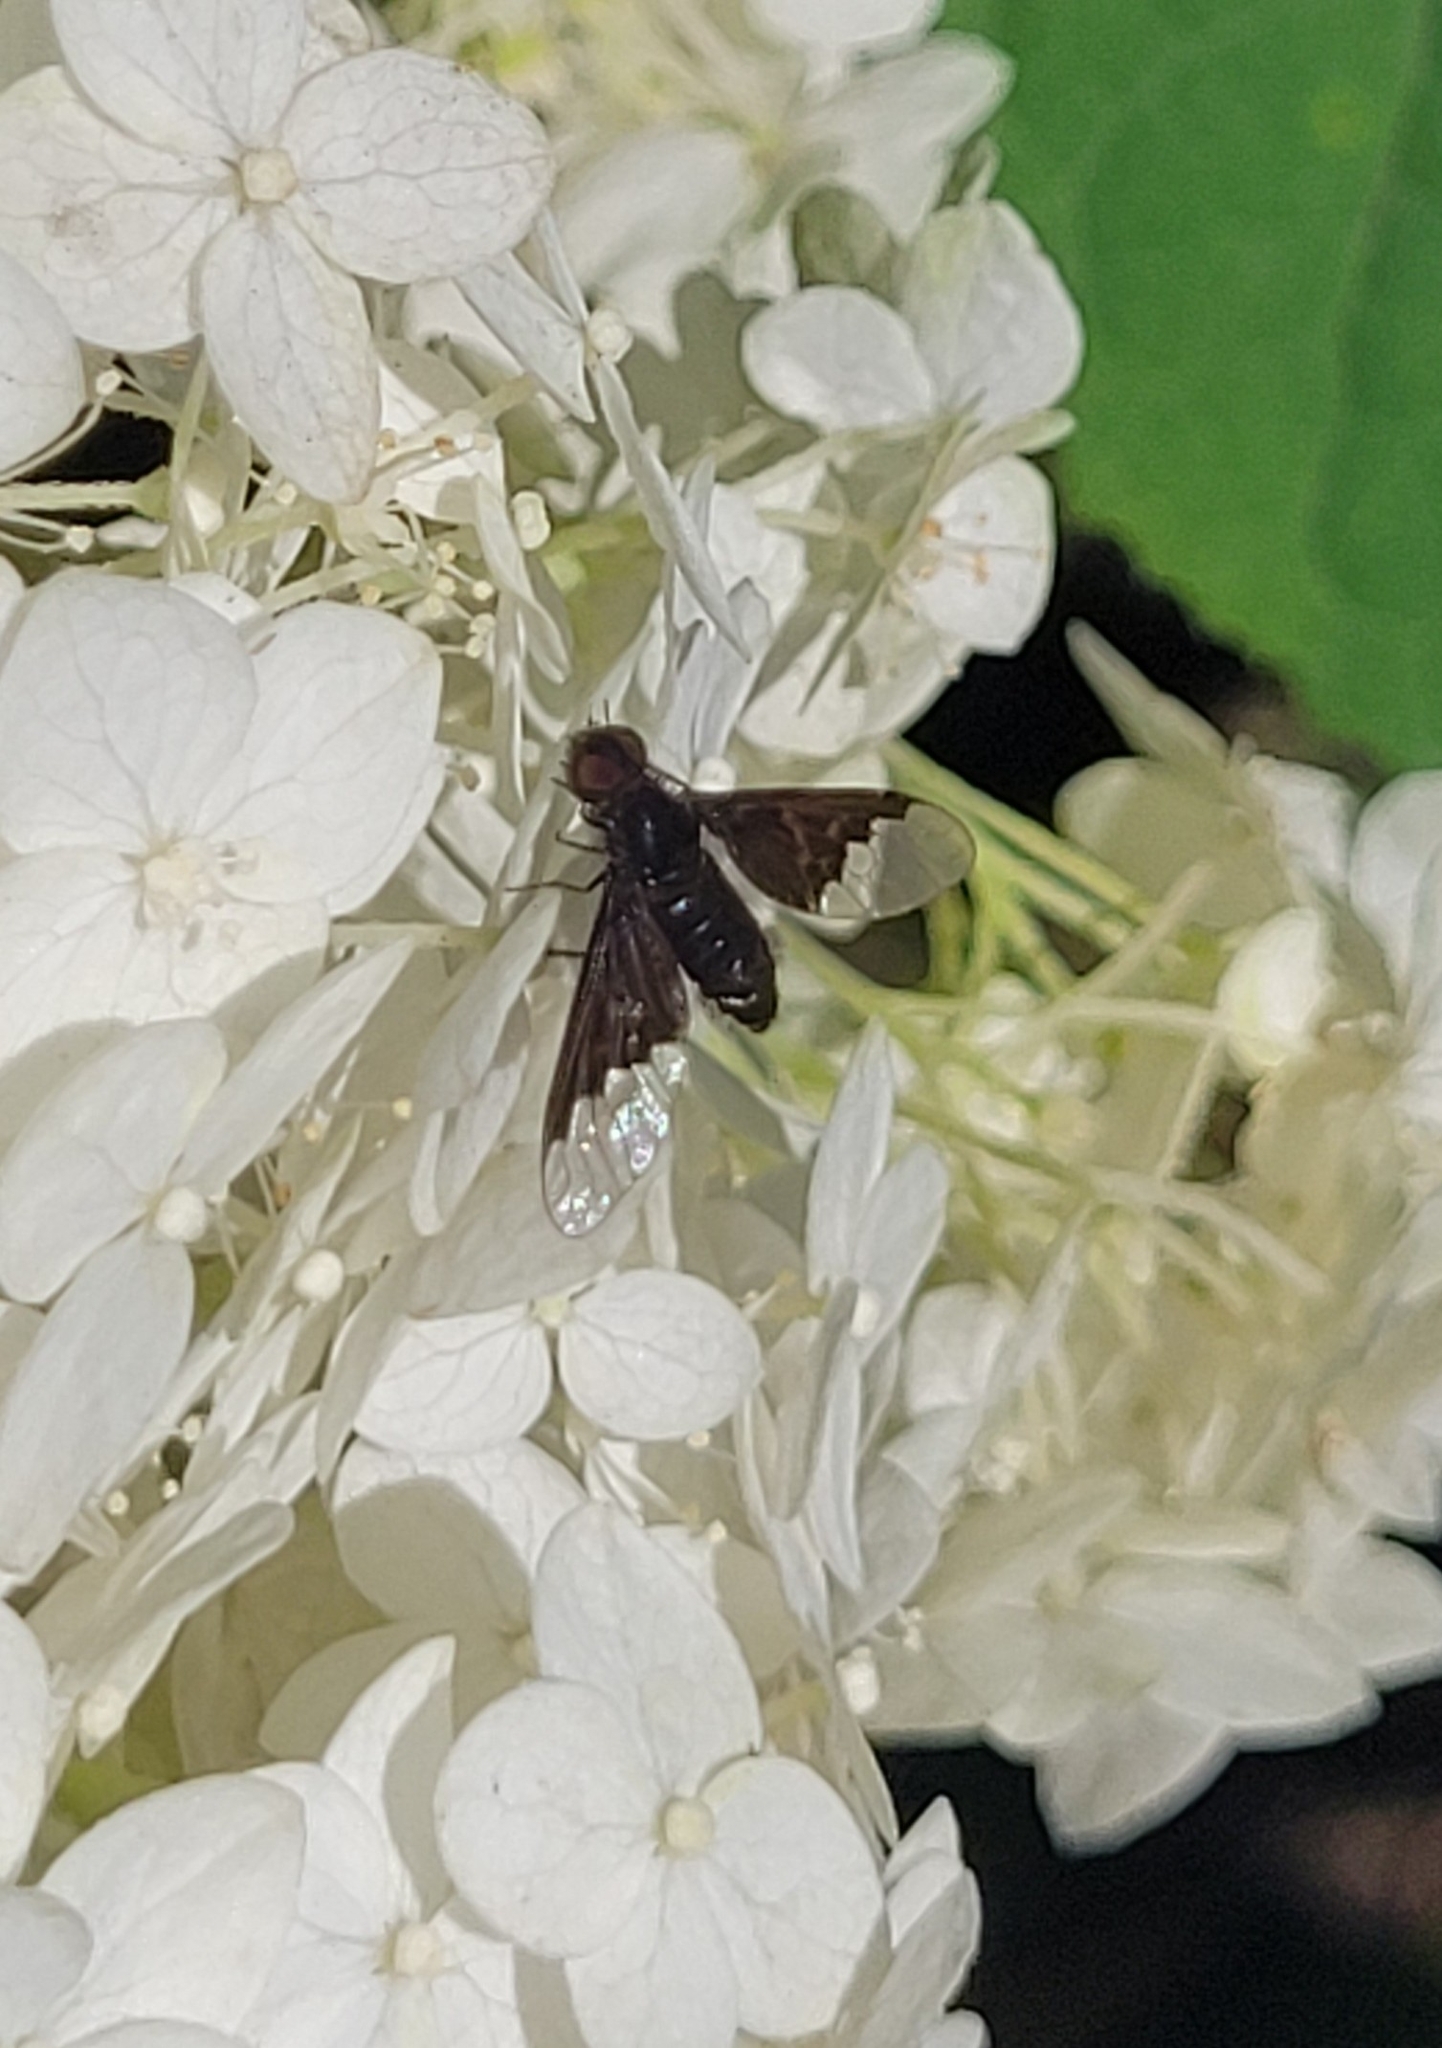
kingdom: Animalia
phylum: Arthropoda
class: Insecta
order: Diptera
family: Bombyliidae
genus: Hemipenthes
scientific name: Hemipenthes morio
